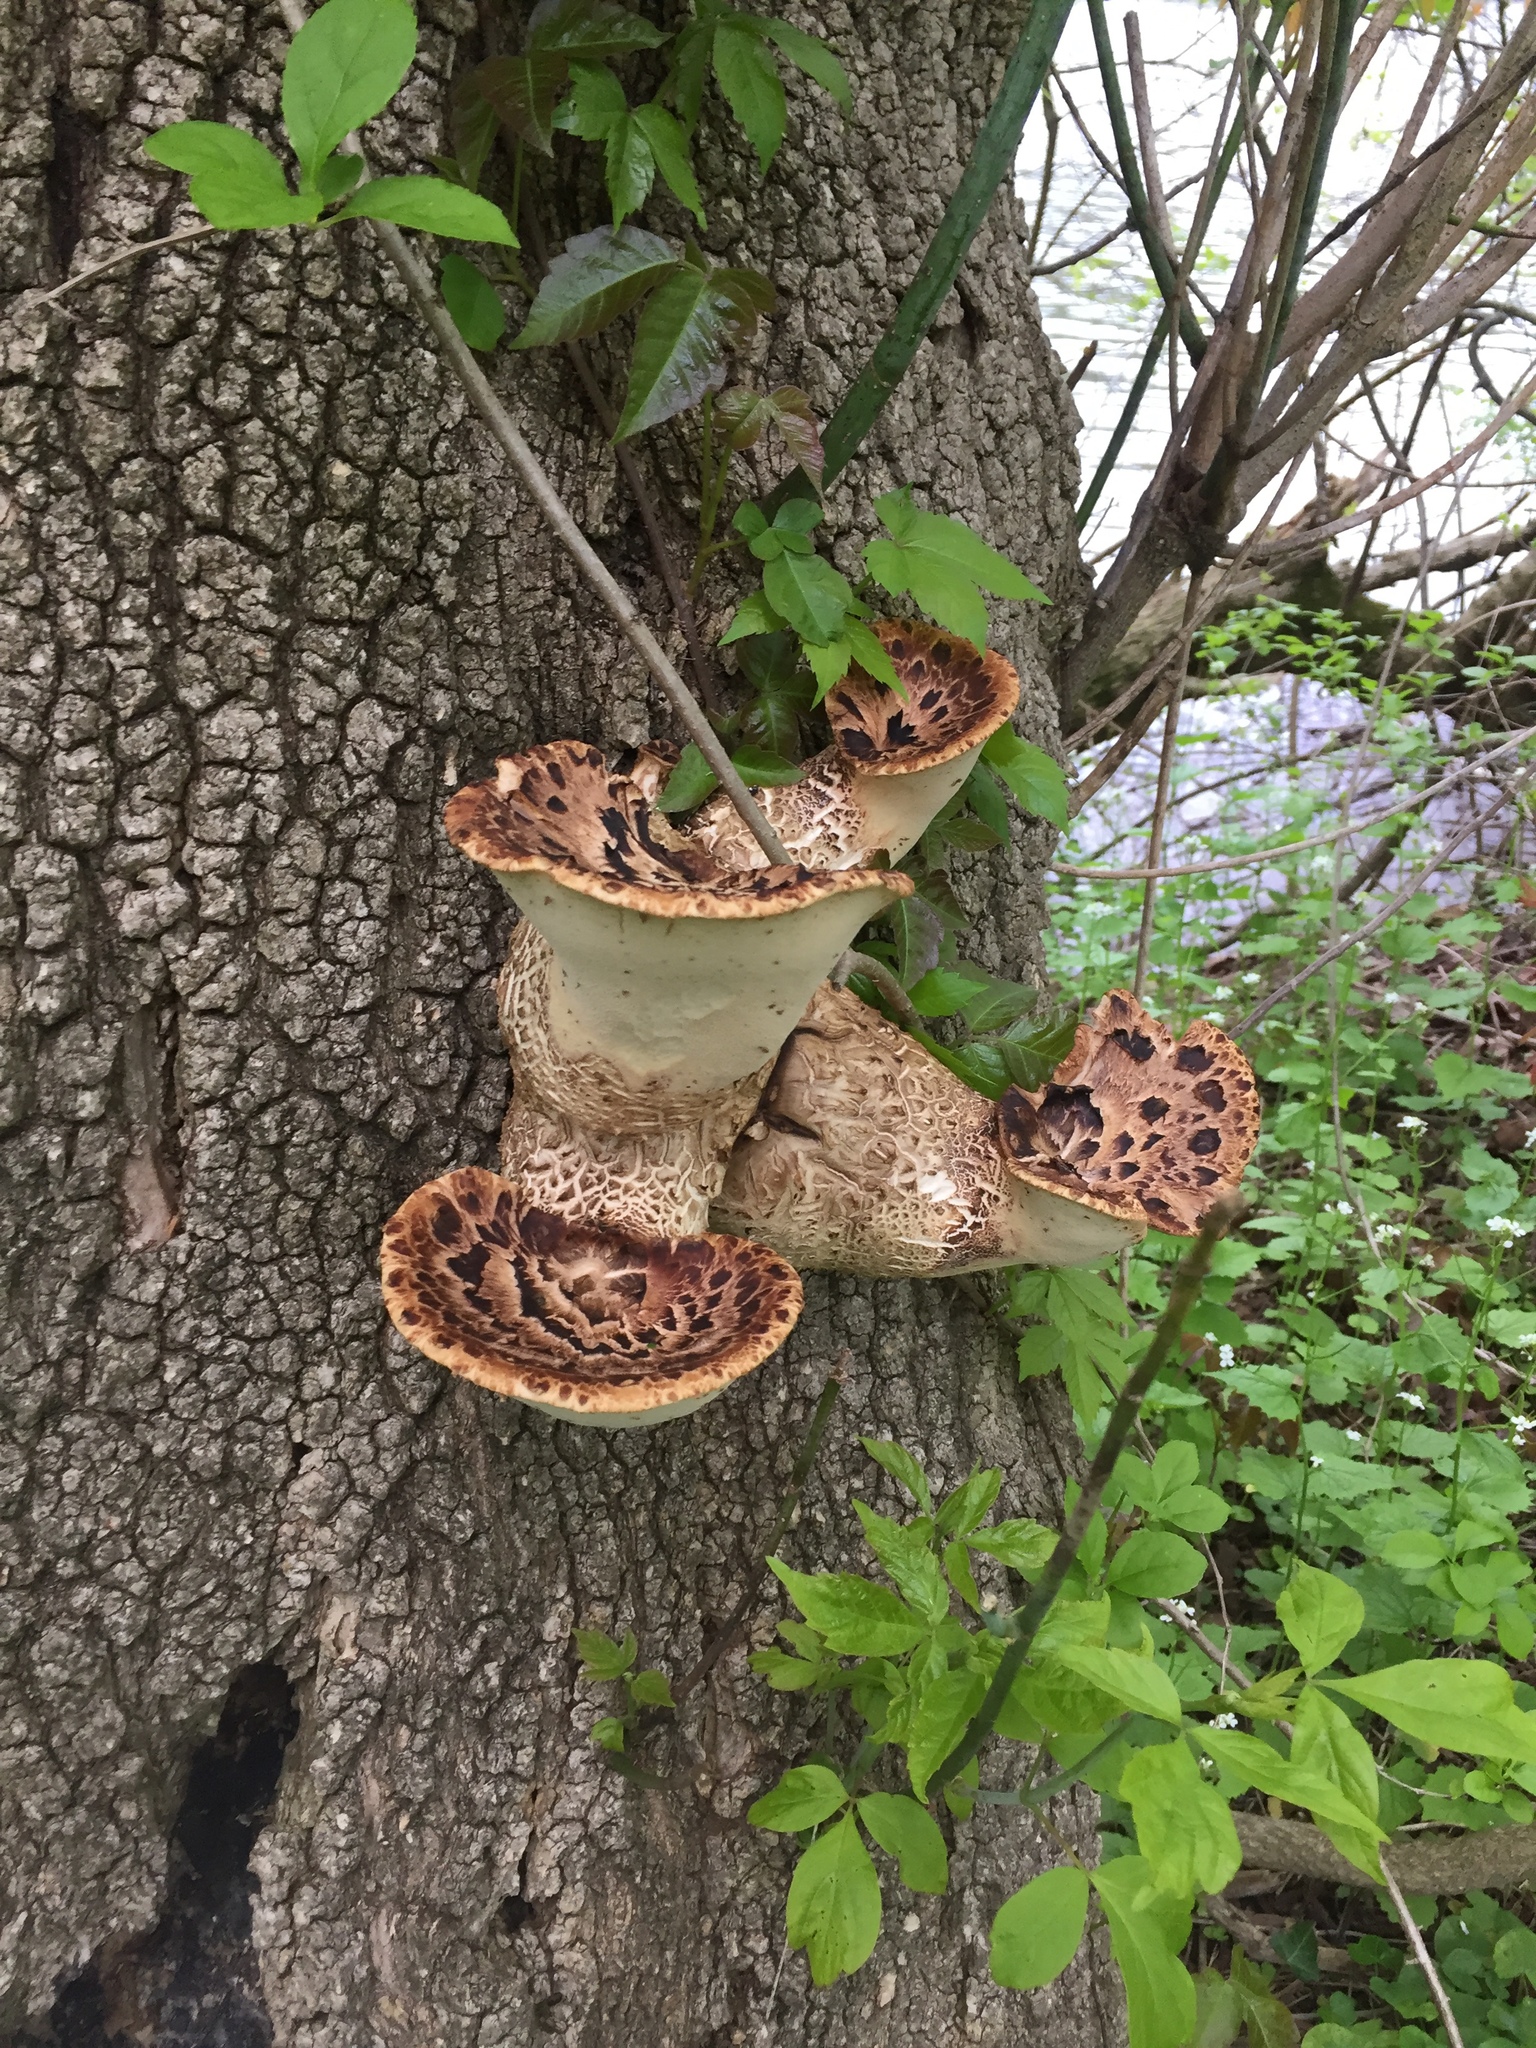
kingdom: Fungi
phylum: Basidiomycota
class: Agaricomycetes
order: Polyporales
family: Polyporaceae
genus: Cerioporus
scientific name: Cerioporus squamosus
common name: Dryad's saddle
